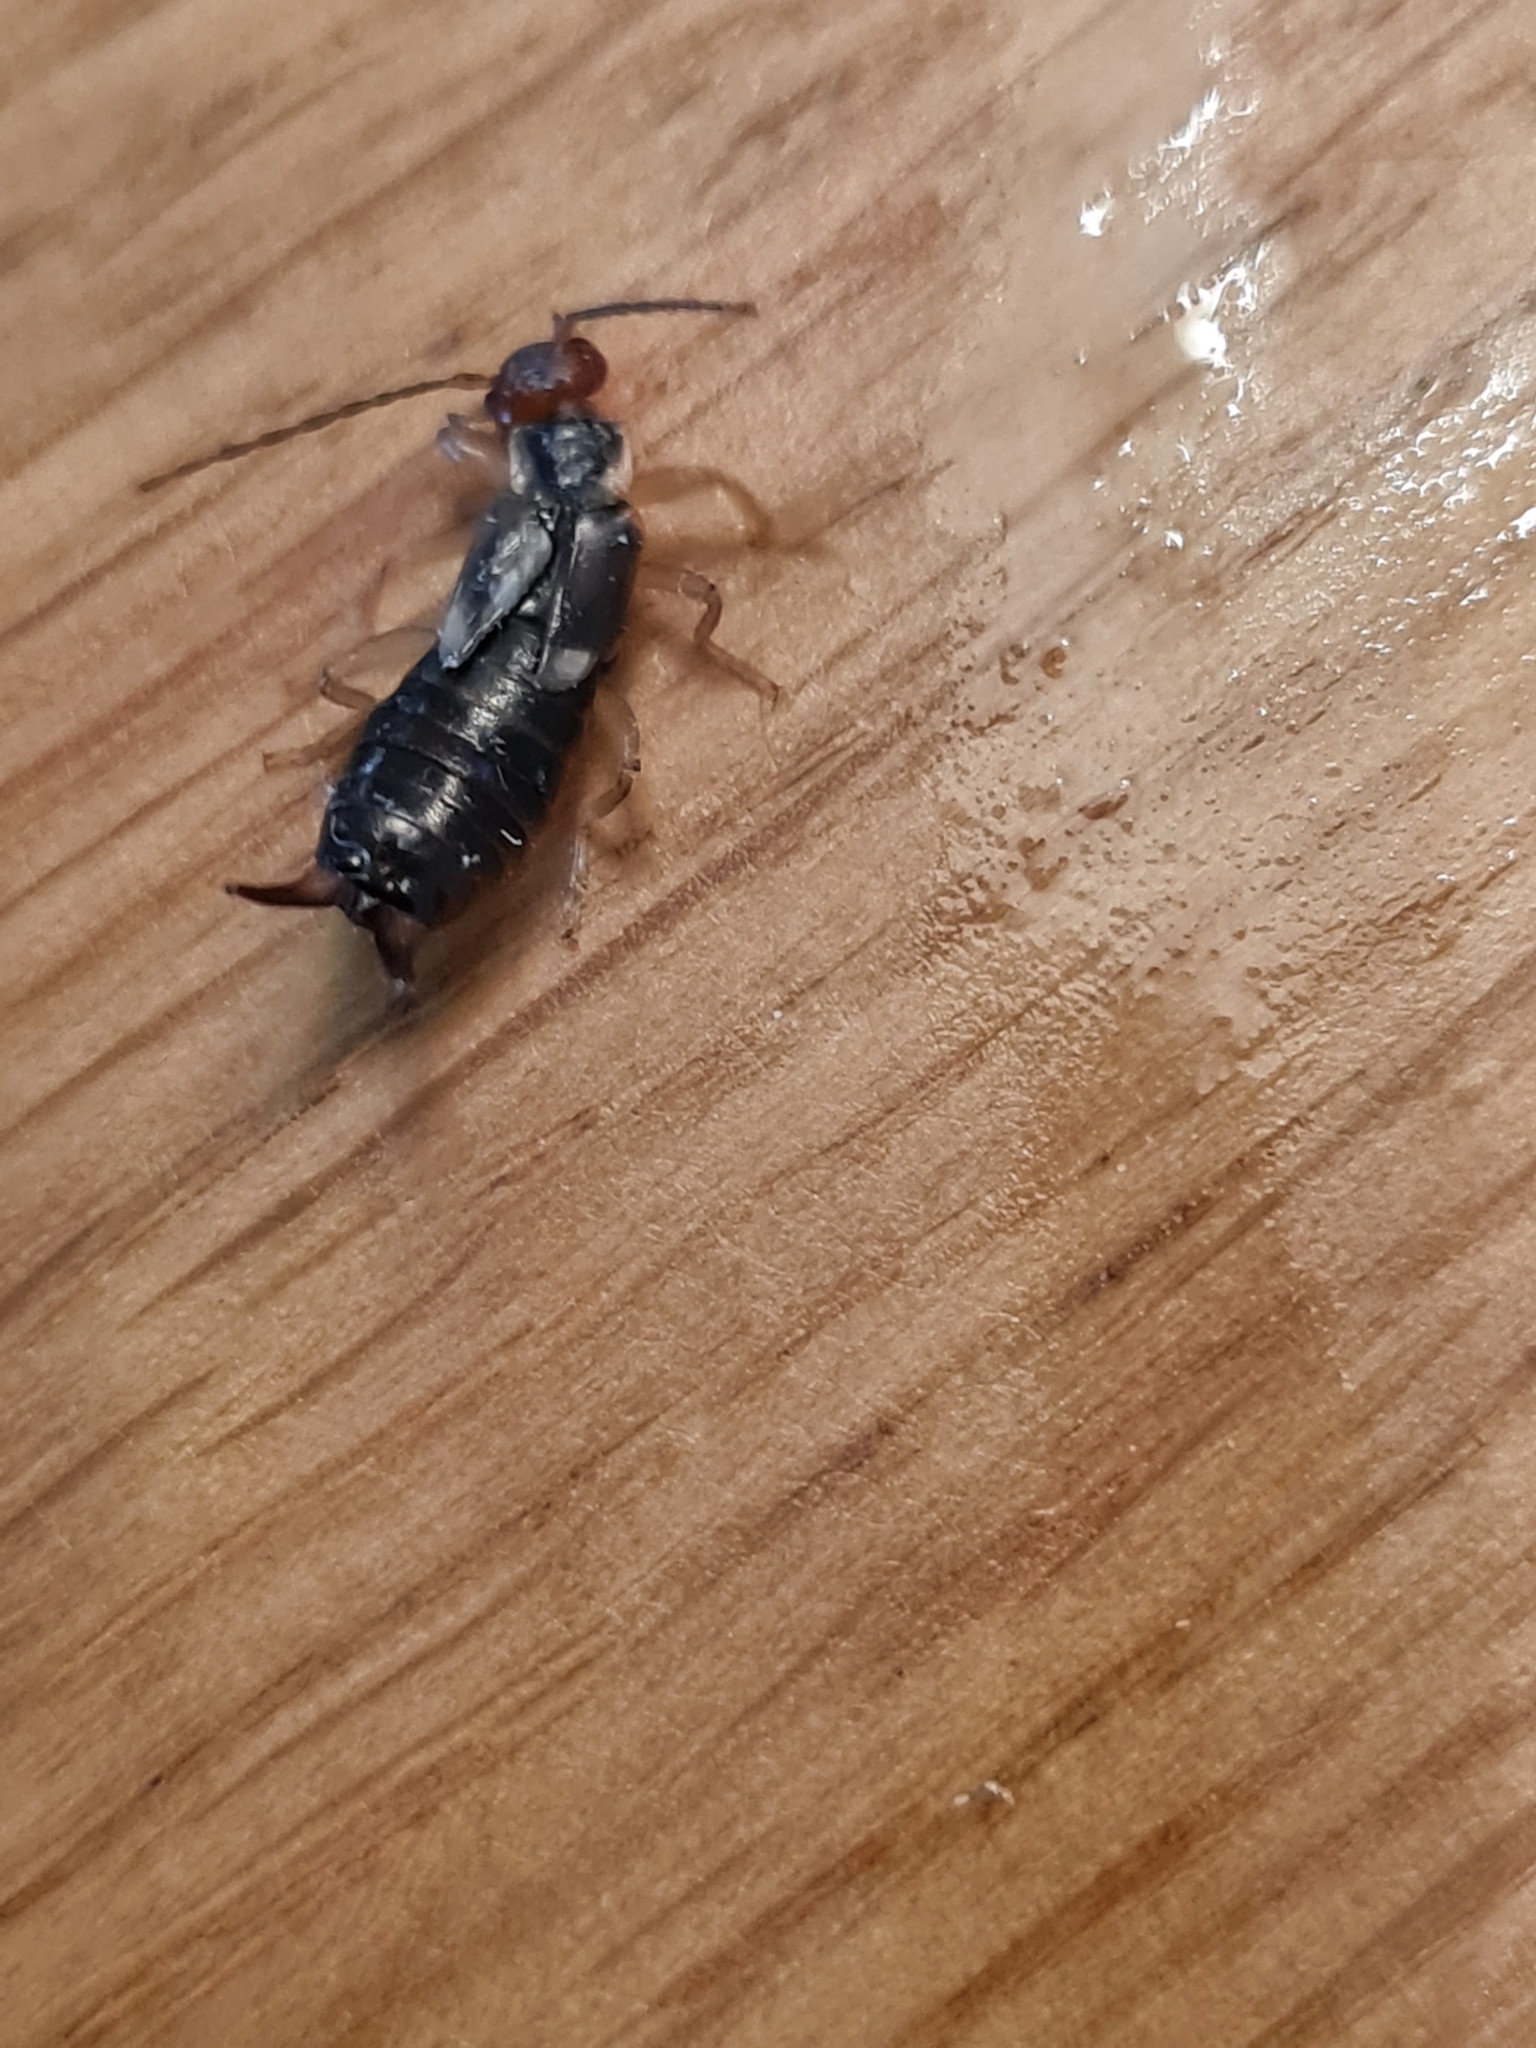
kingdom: Animalia
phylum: Arthropoda
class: Insecta
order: Dermaptera
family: Forficulidae
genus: Forficula
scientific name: Forficula dentata
